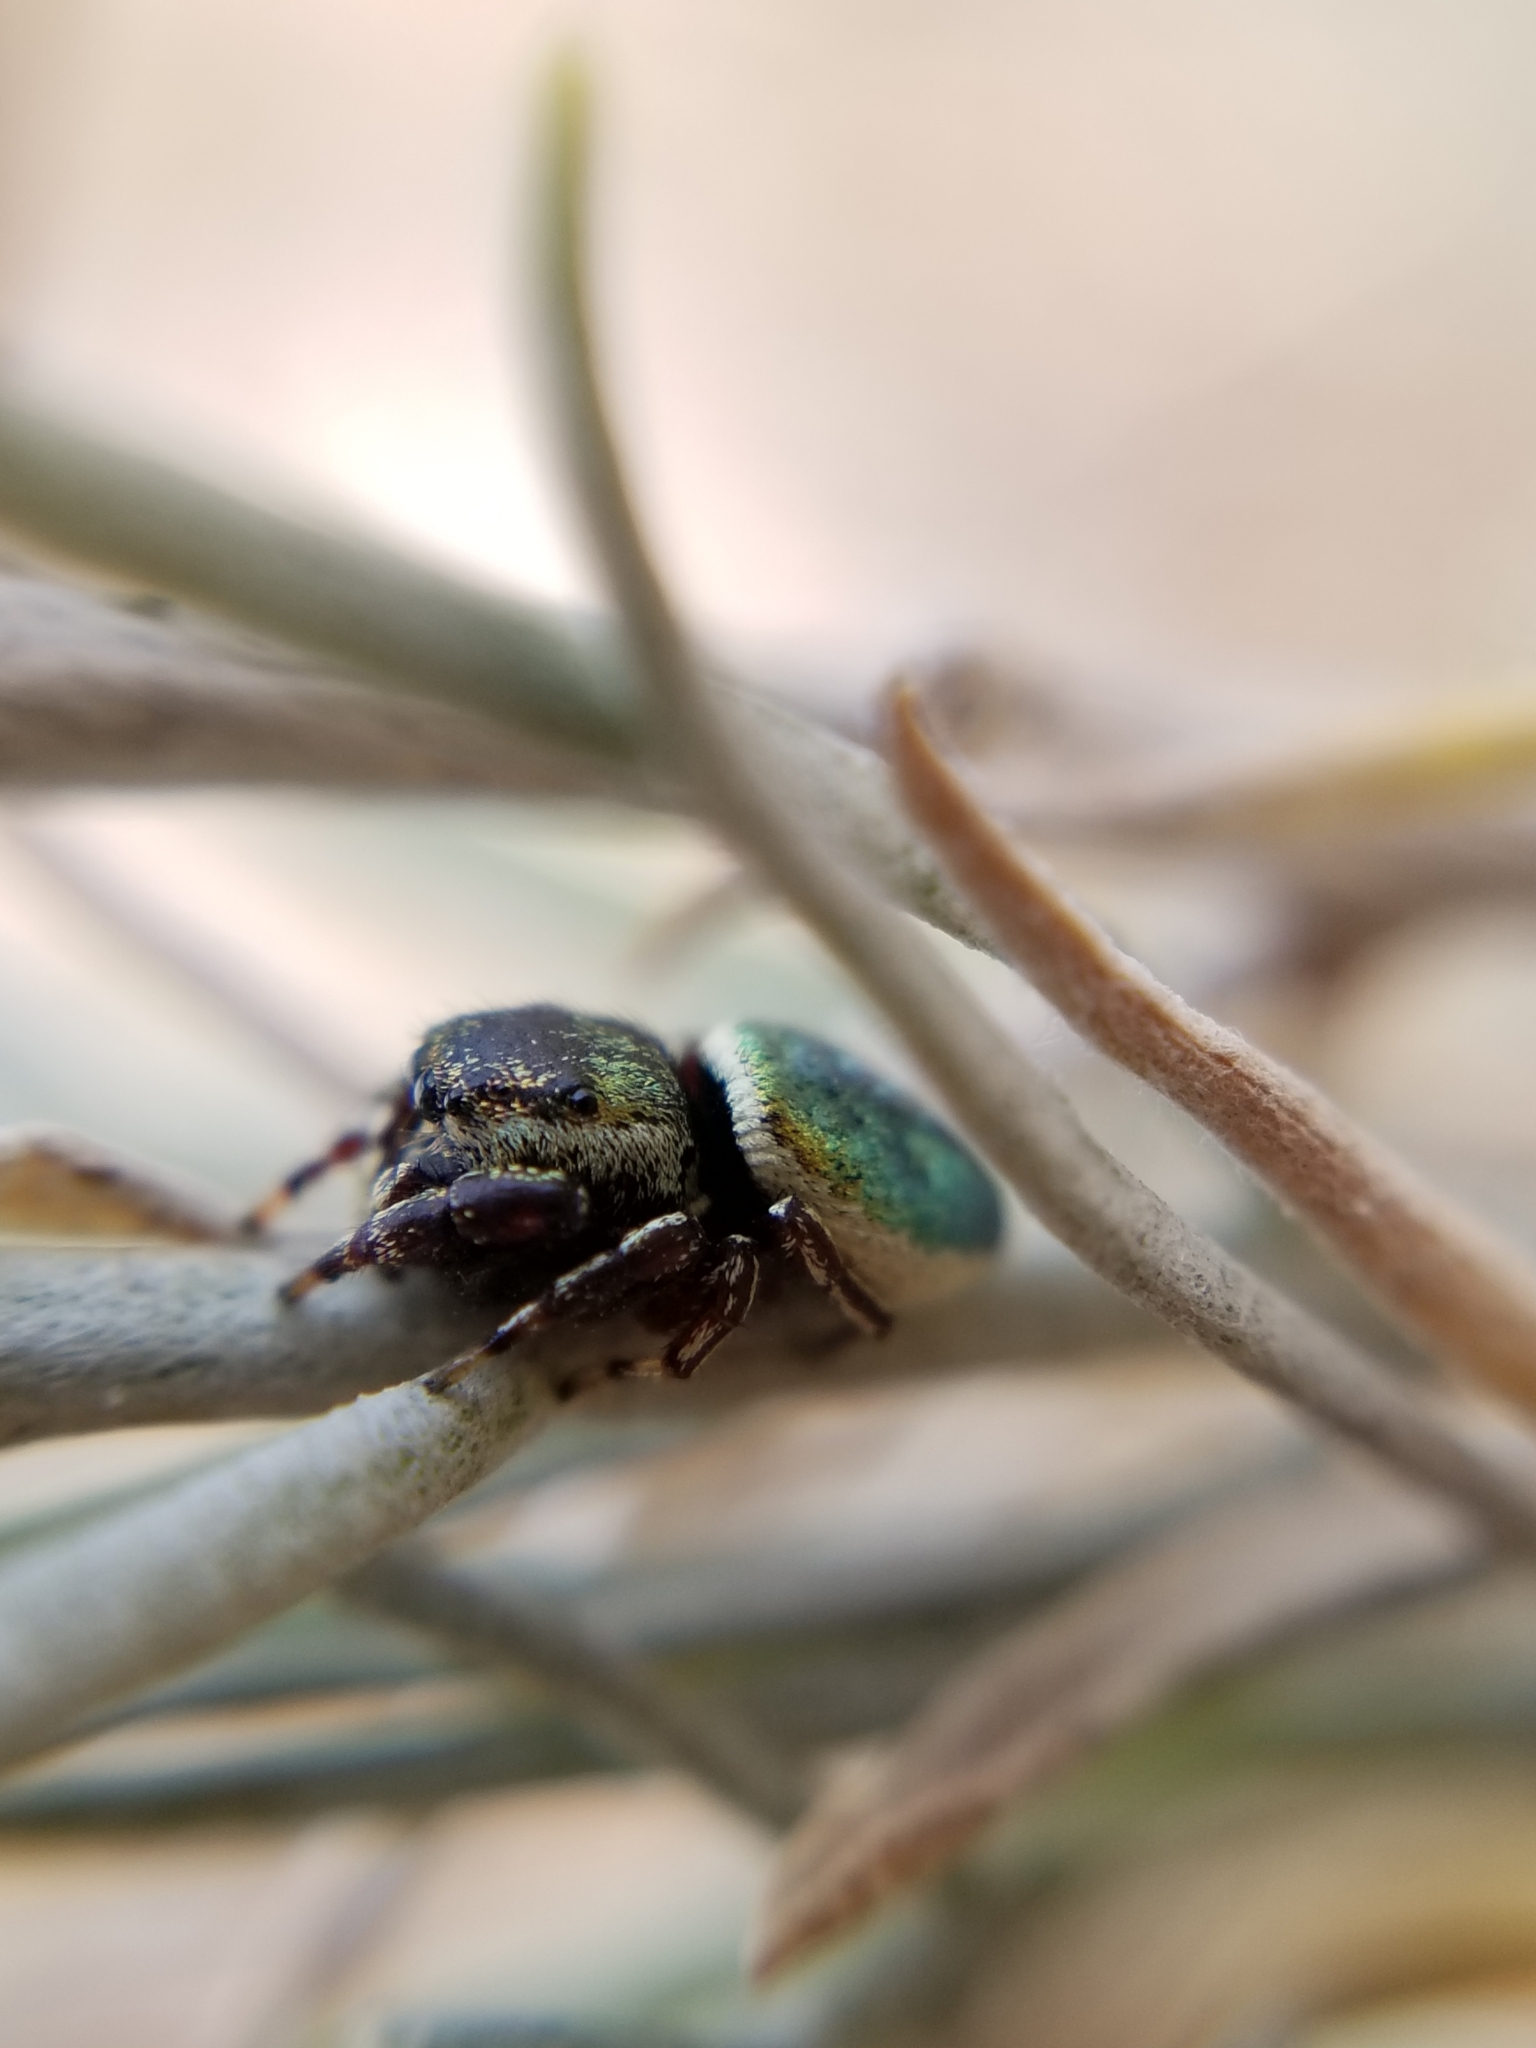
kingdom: Animalia
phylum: Arthropoda
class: Arachnida
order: Araneae
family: Salticidae
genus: Sassacus
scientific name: Sassacus papenhoei
